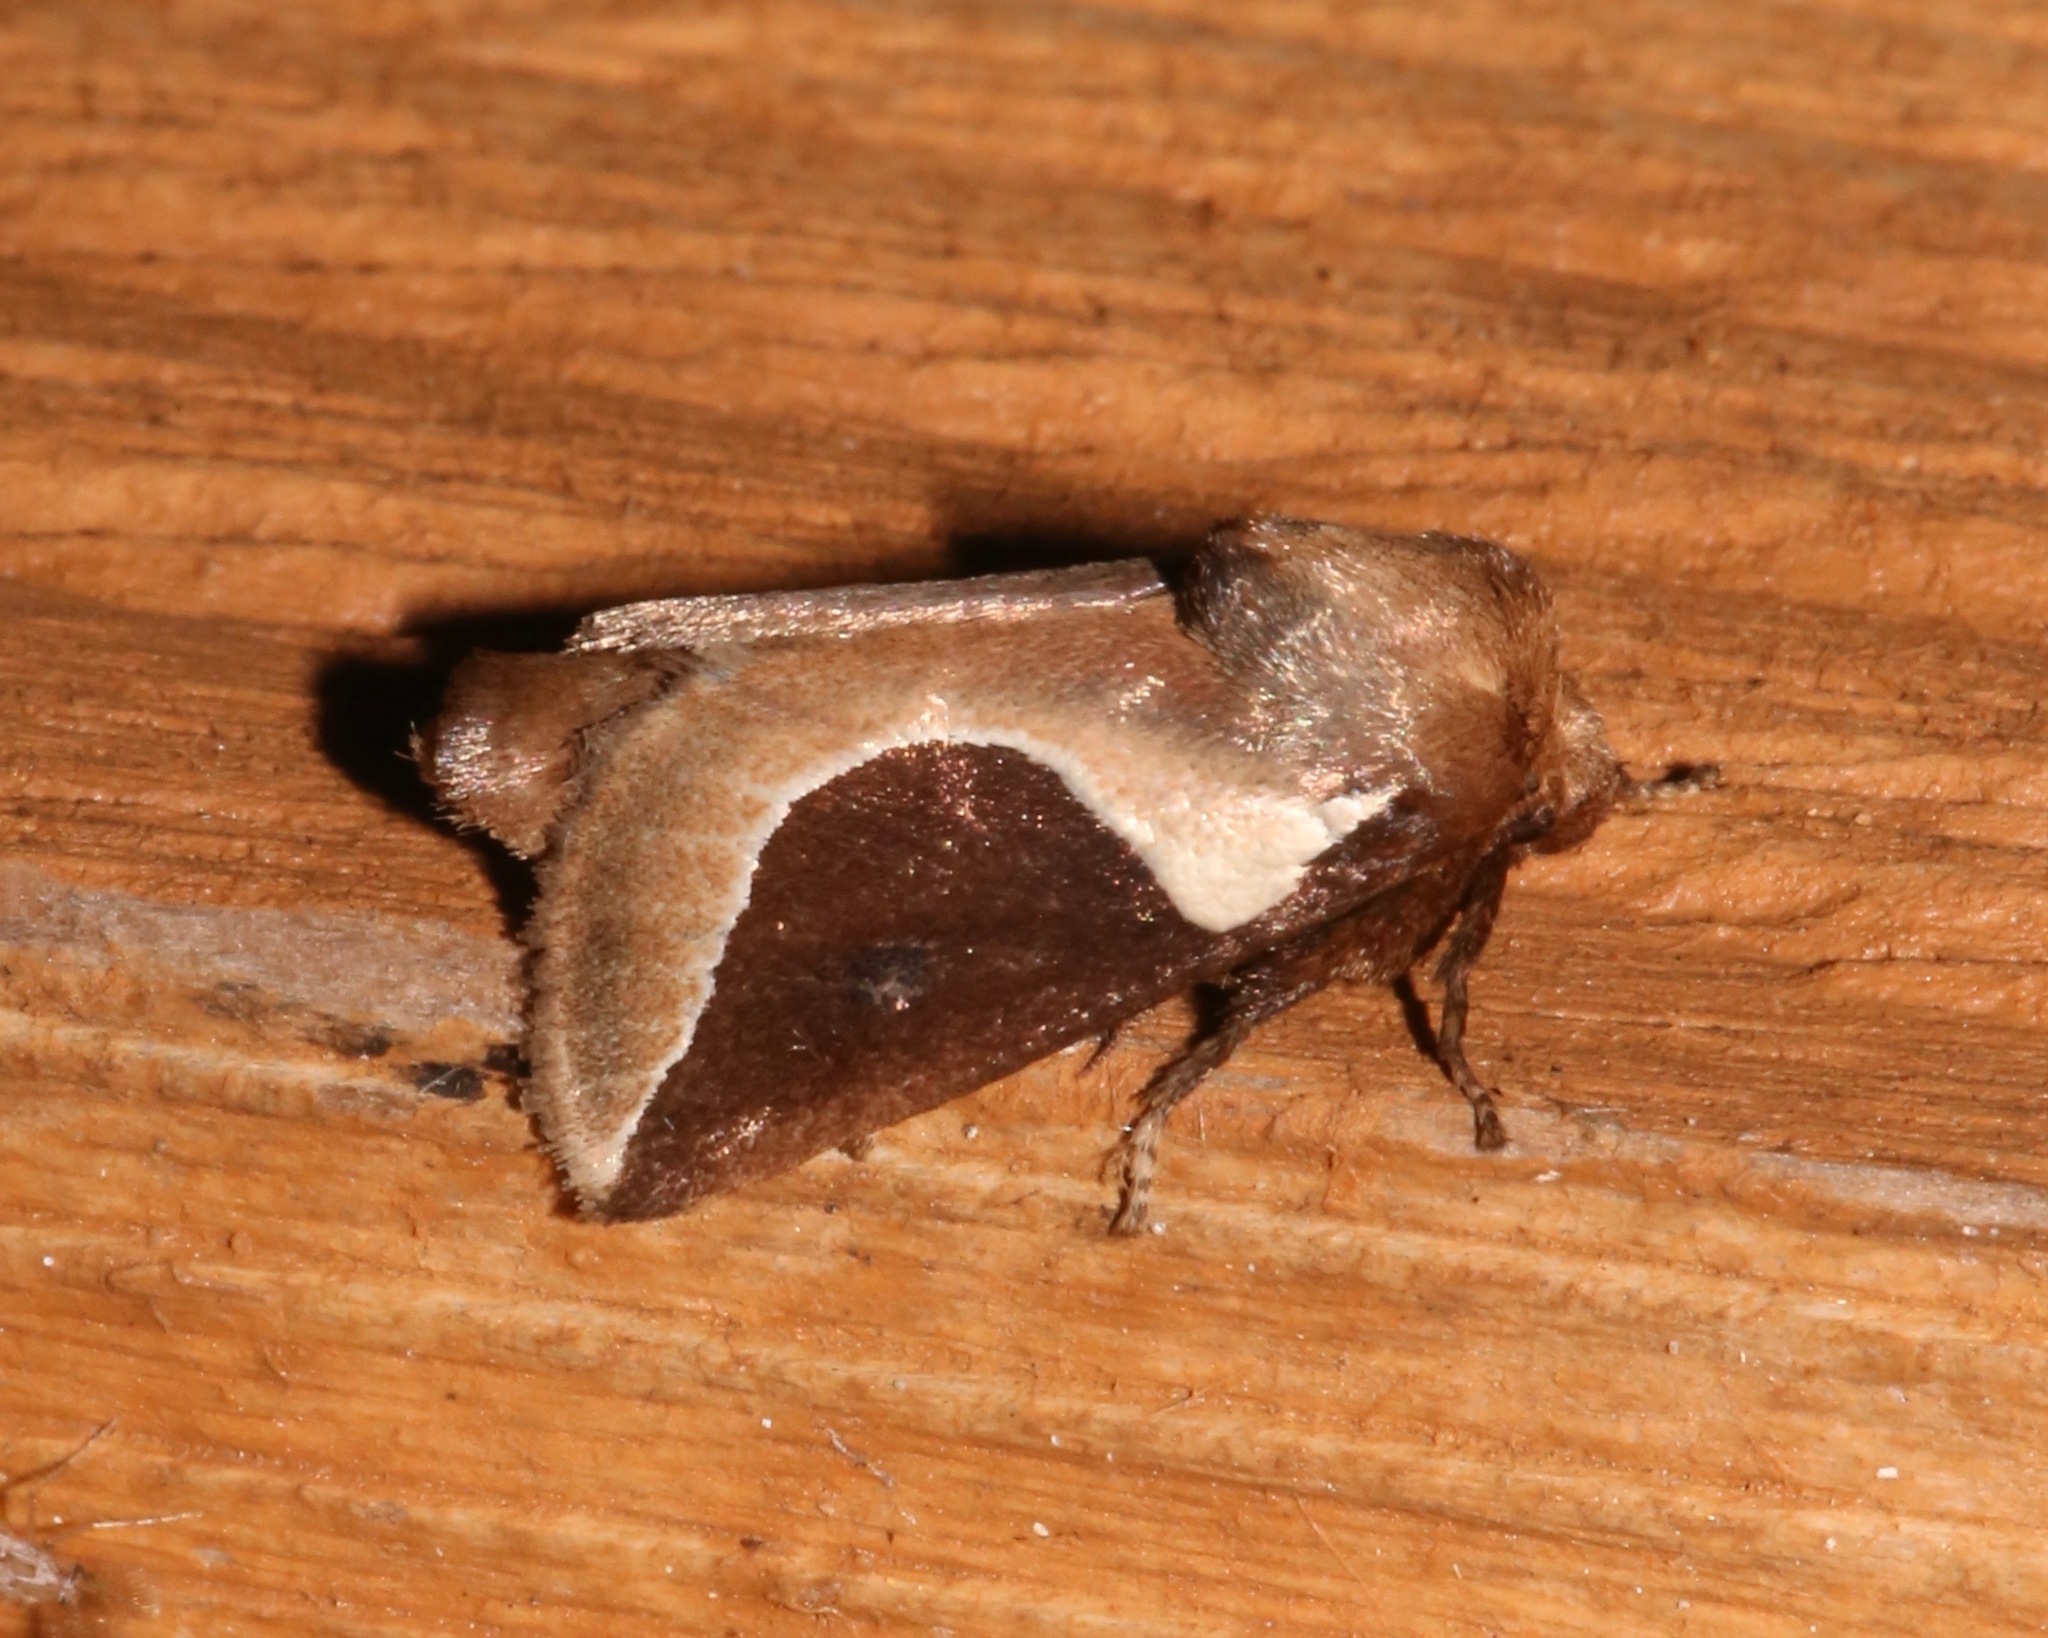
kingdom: Animalia
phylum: Arthropoda
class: Insecta
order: Lepidoptera
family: Limacodidae
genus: Prolimacodes
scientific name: Prolimacodes badia
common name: Skiff moth
